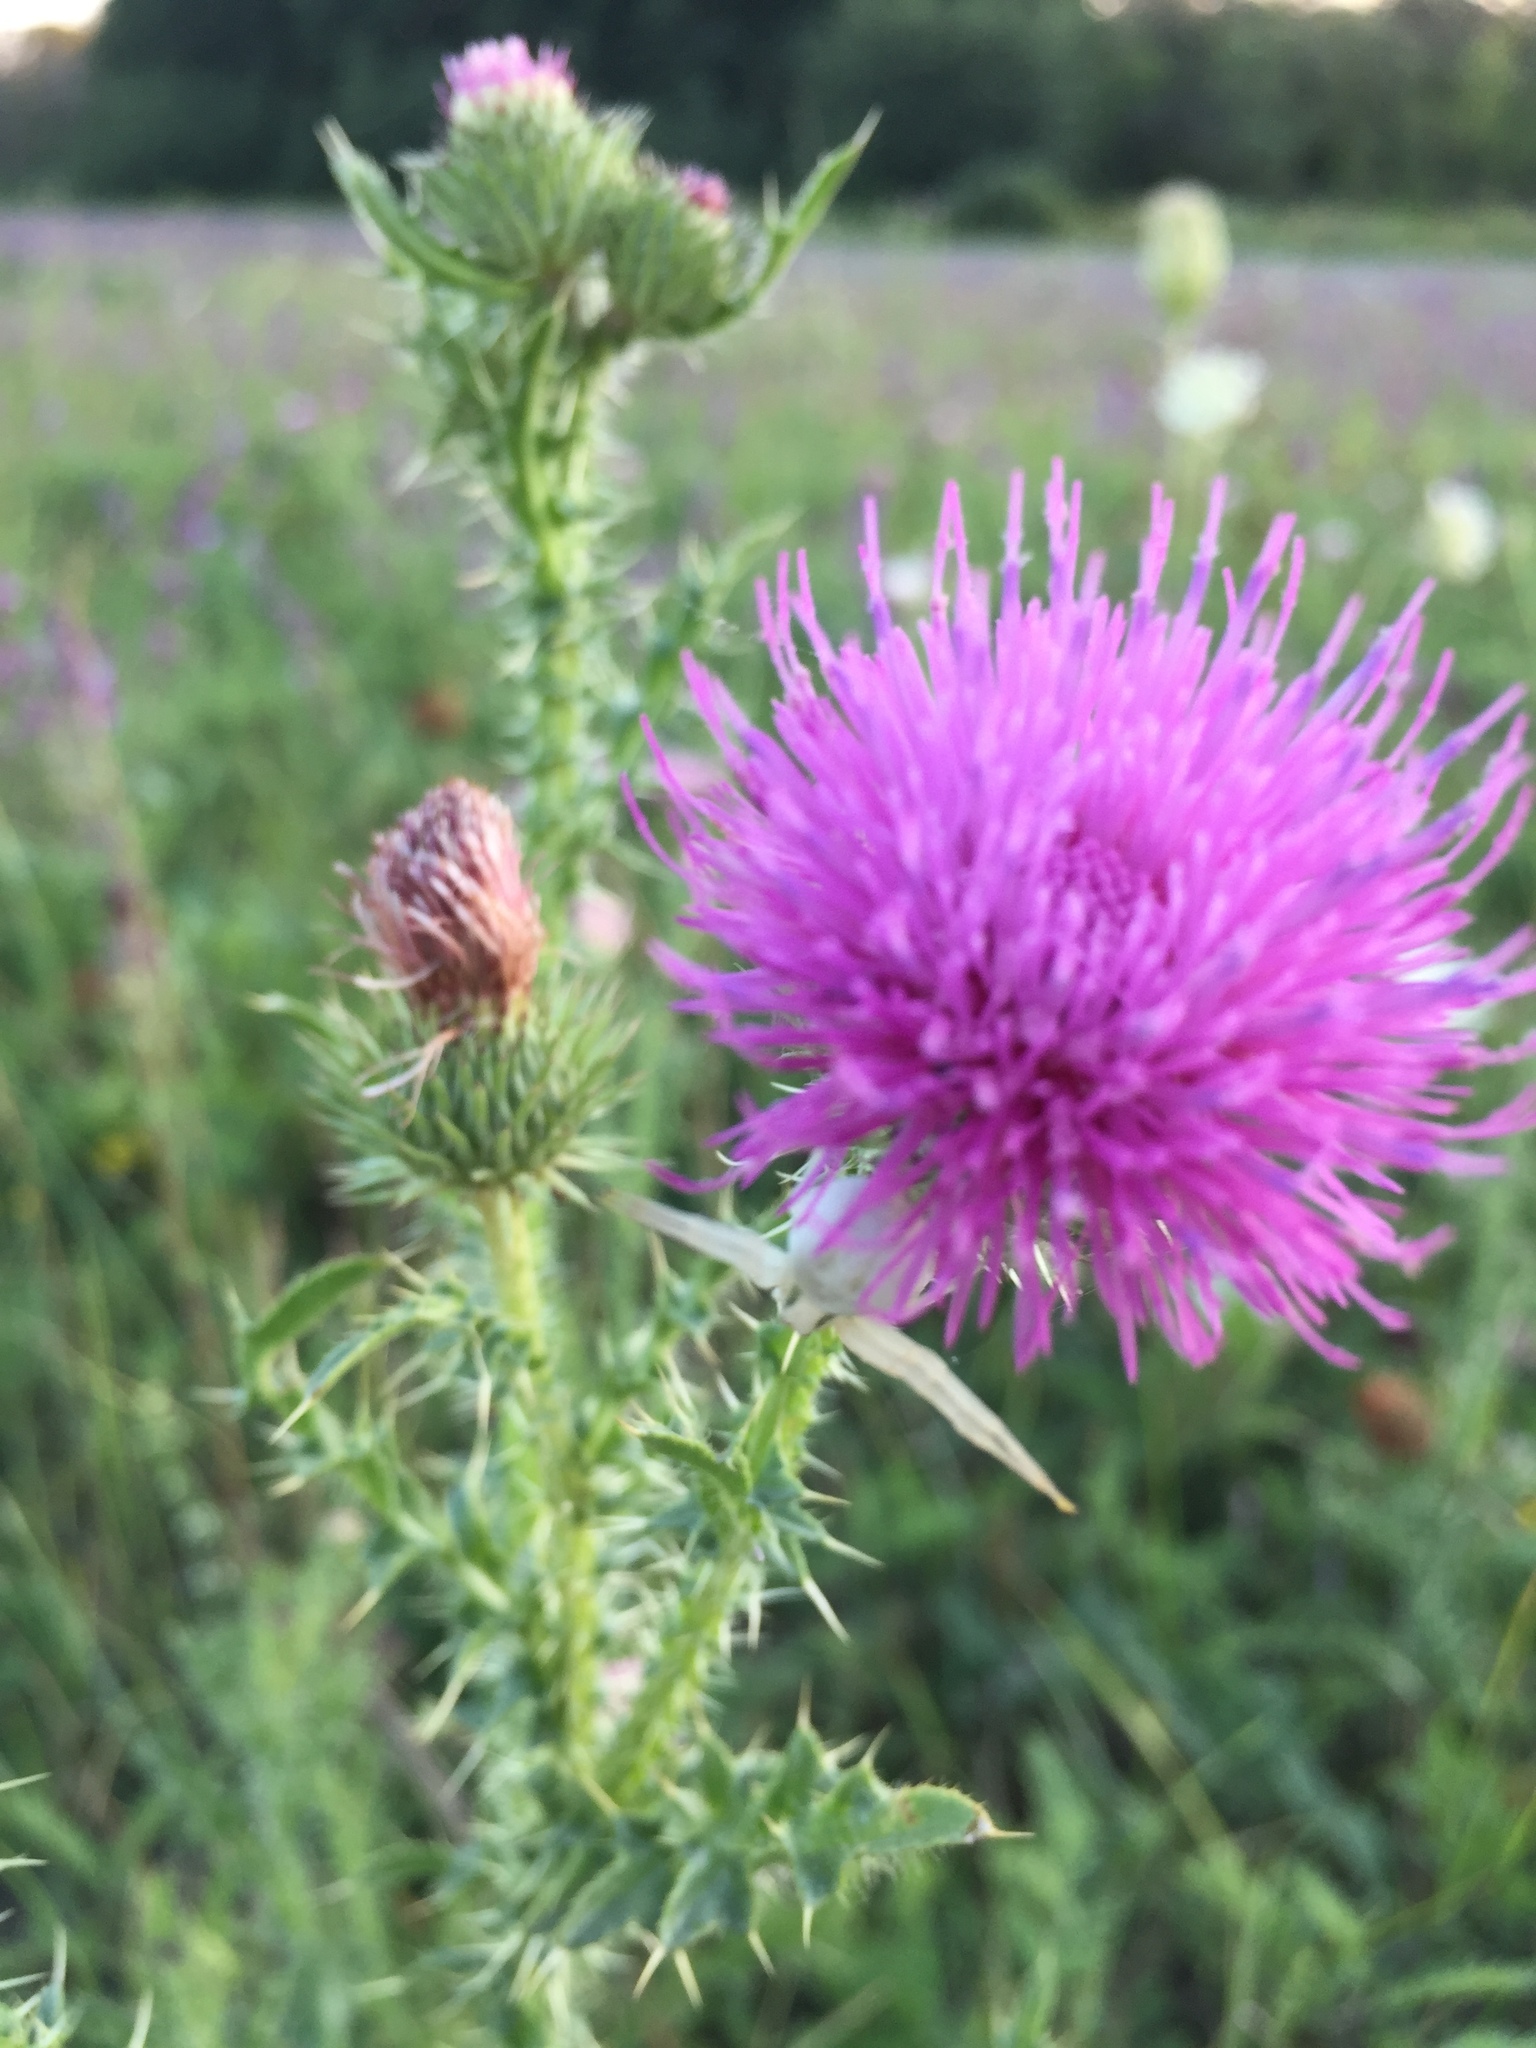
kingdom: Plantae
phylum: Tracheophyta
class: Magnoliopsida
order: Asterales
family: Asteraceae
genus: Carduus
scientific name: Carduus acanthoides
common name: Plumeless thistle
